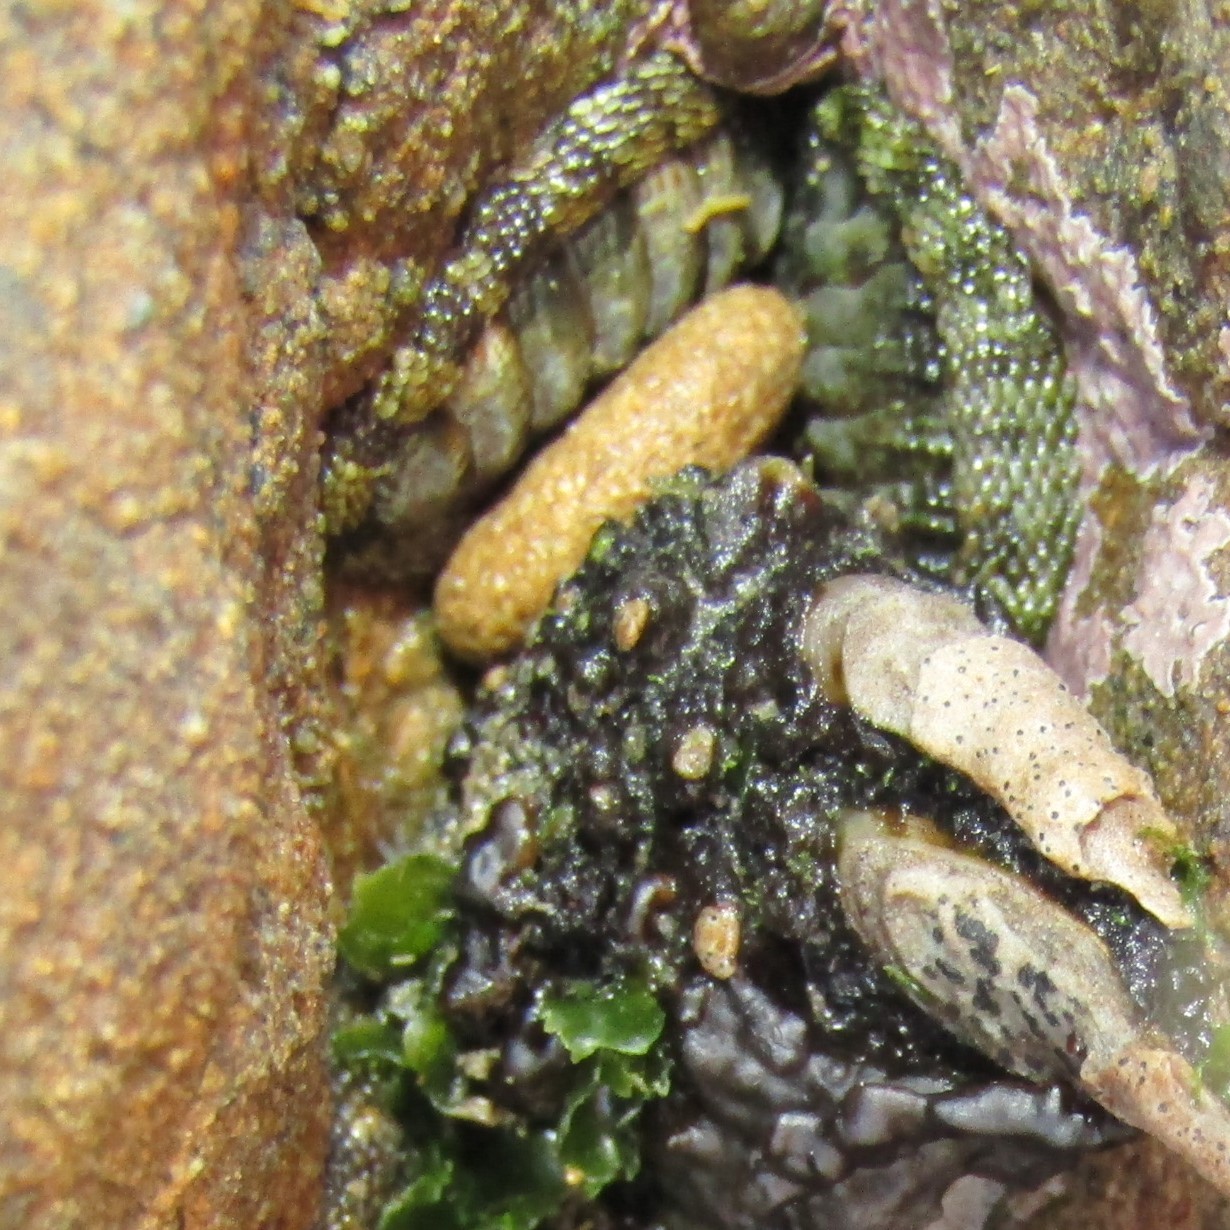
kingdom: Animalia
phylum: Mollusca
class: Polyplacophora
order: Chitonida
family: Chitonidae
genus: Sypharochiton
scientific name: Sypharochiton pelliserpentis
